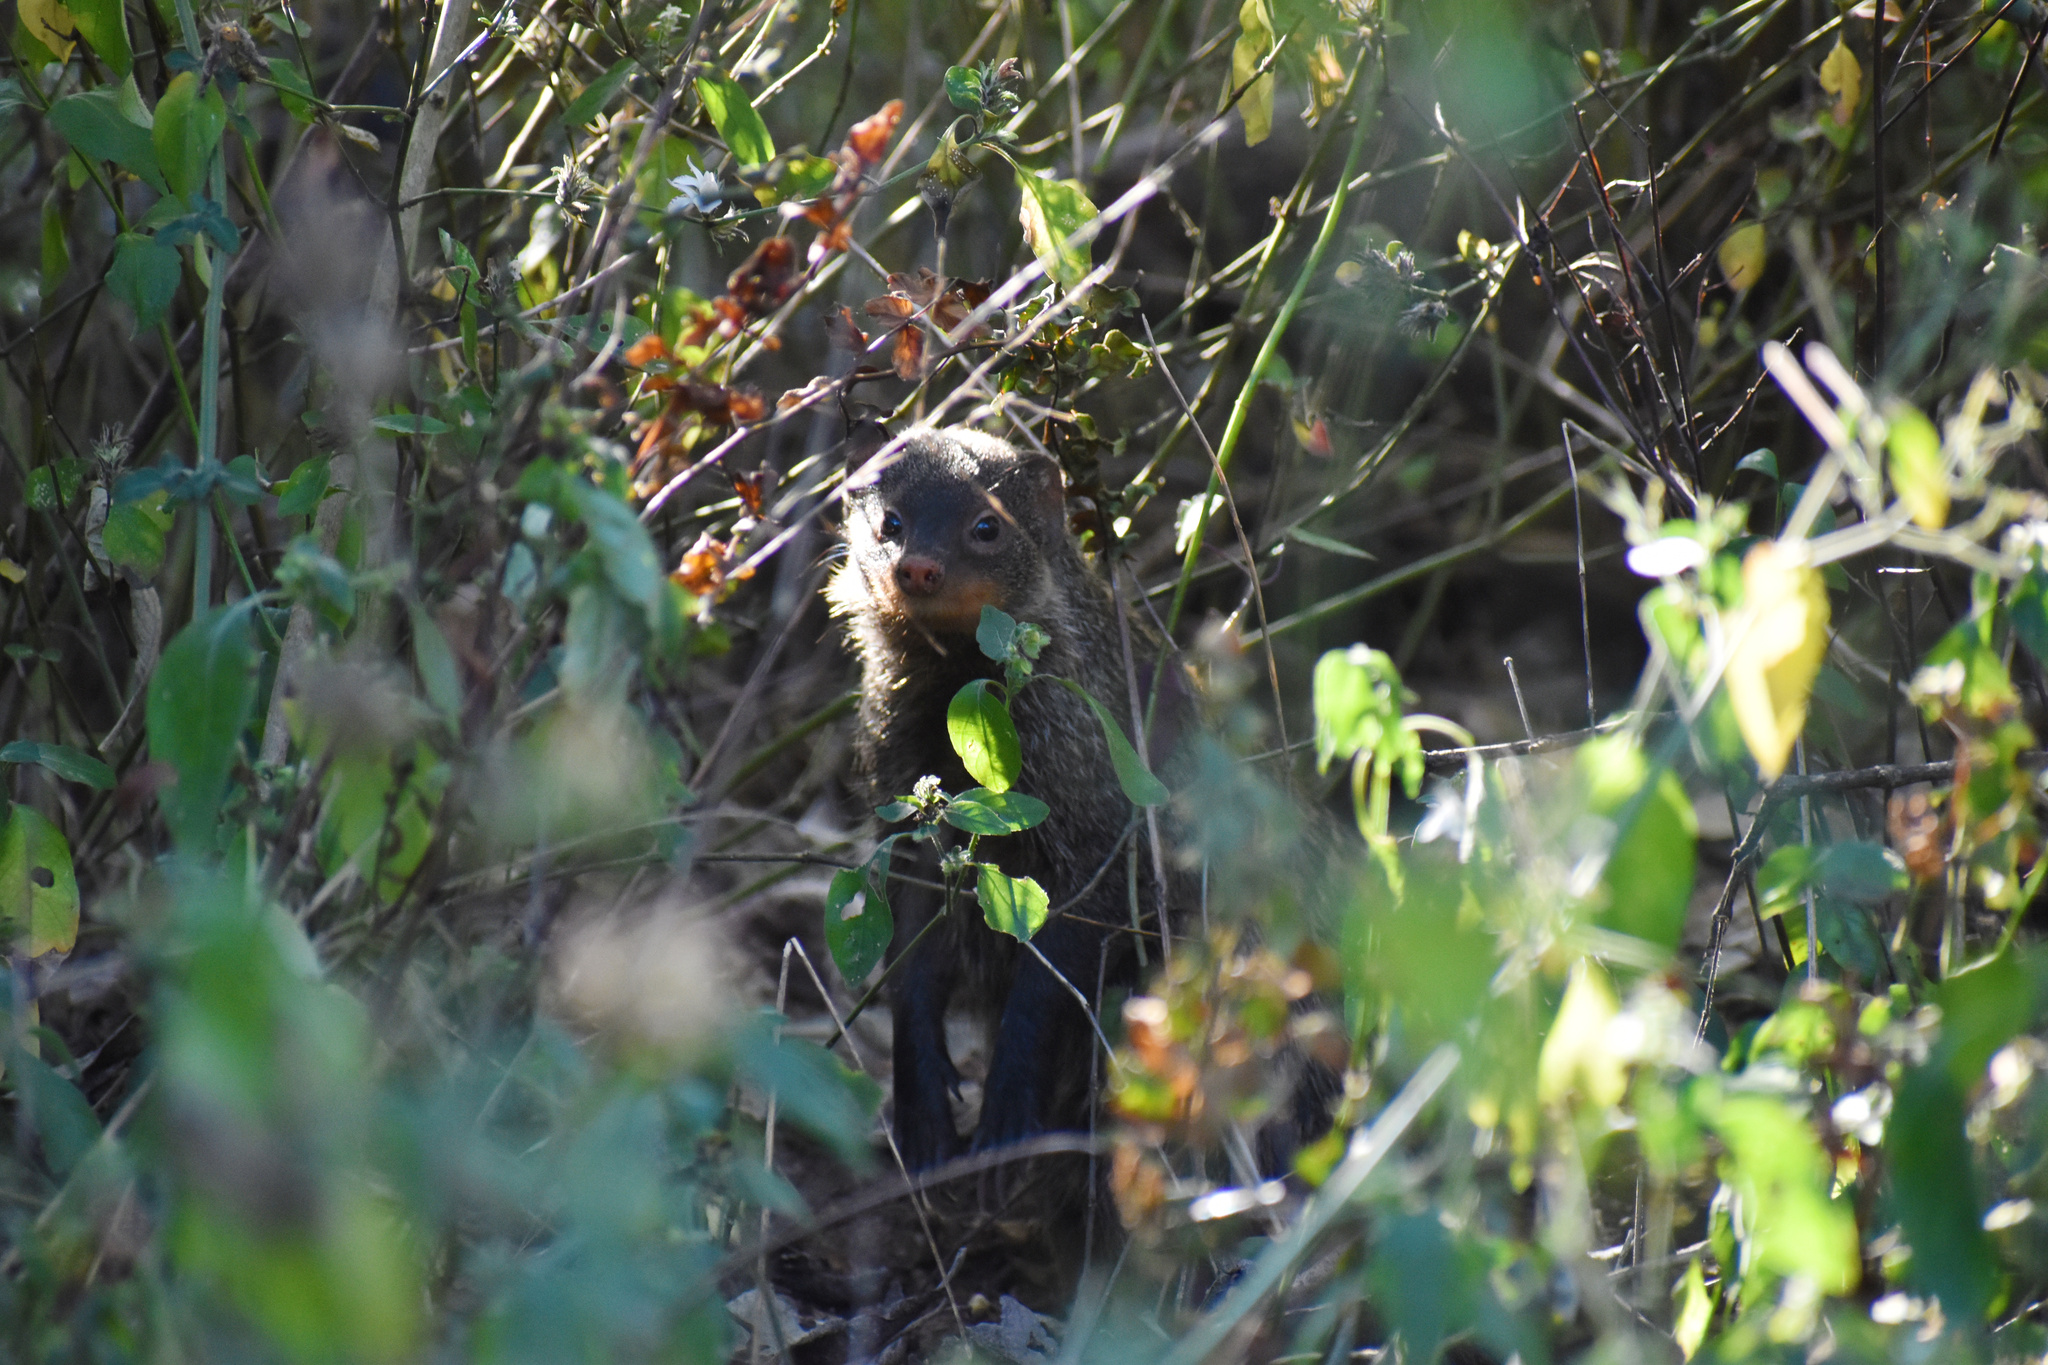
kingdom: Animalia
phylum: Chordata
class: Mammalia
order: Carnivora
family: Herpestidae
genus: Mungos
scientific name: Mungos mungo
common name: Banded mongoose
